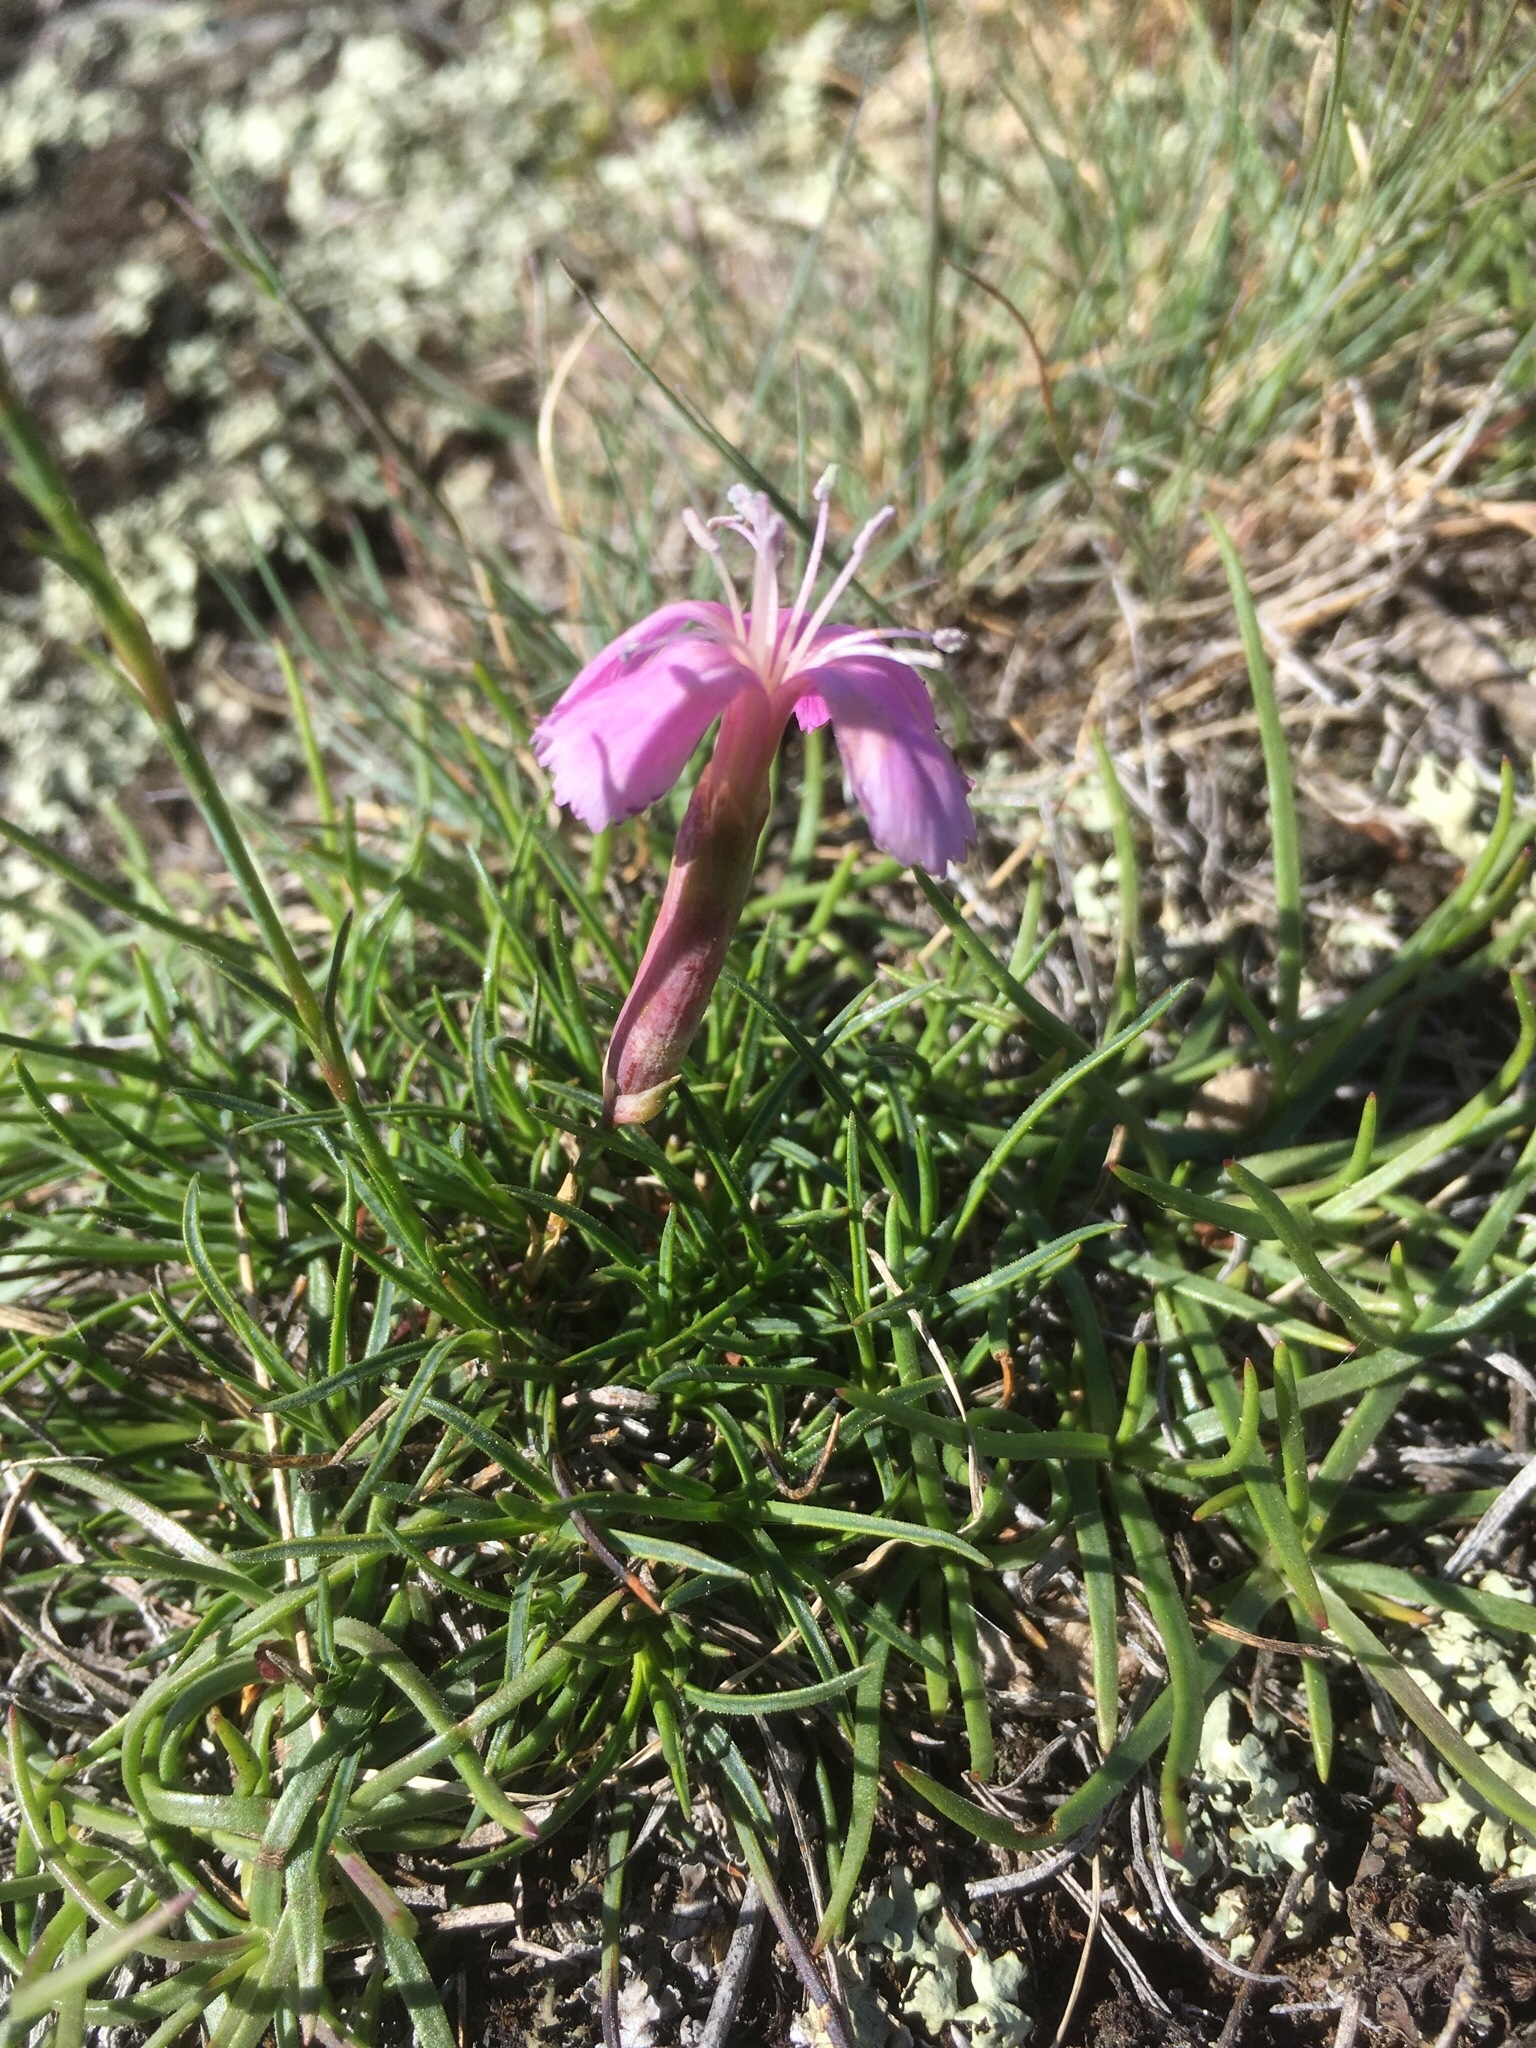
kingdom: Plantae
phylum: Tracheophyta
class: Magnoliopsida
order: Caryophyllales
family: Caryophyllaceae
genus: Dianthus
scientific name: Dianthus sylvestris
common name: Wood pink
